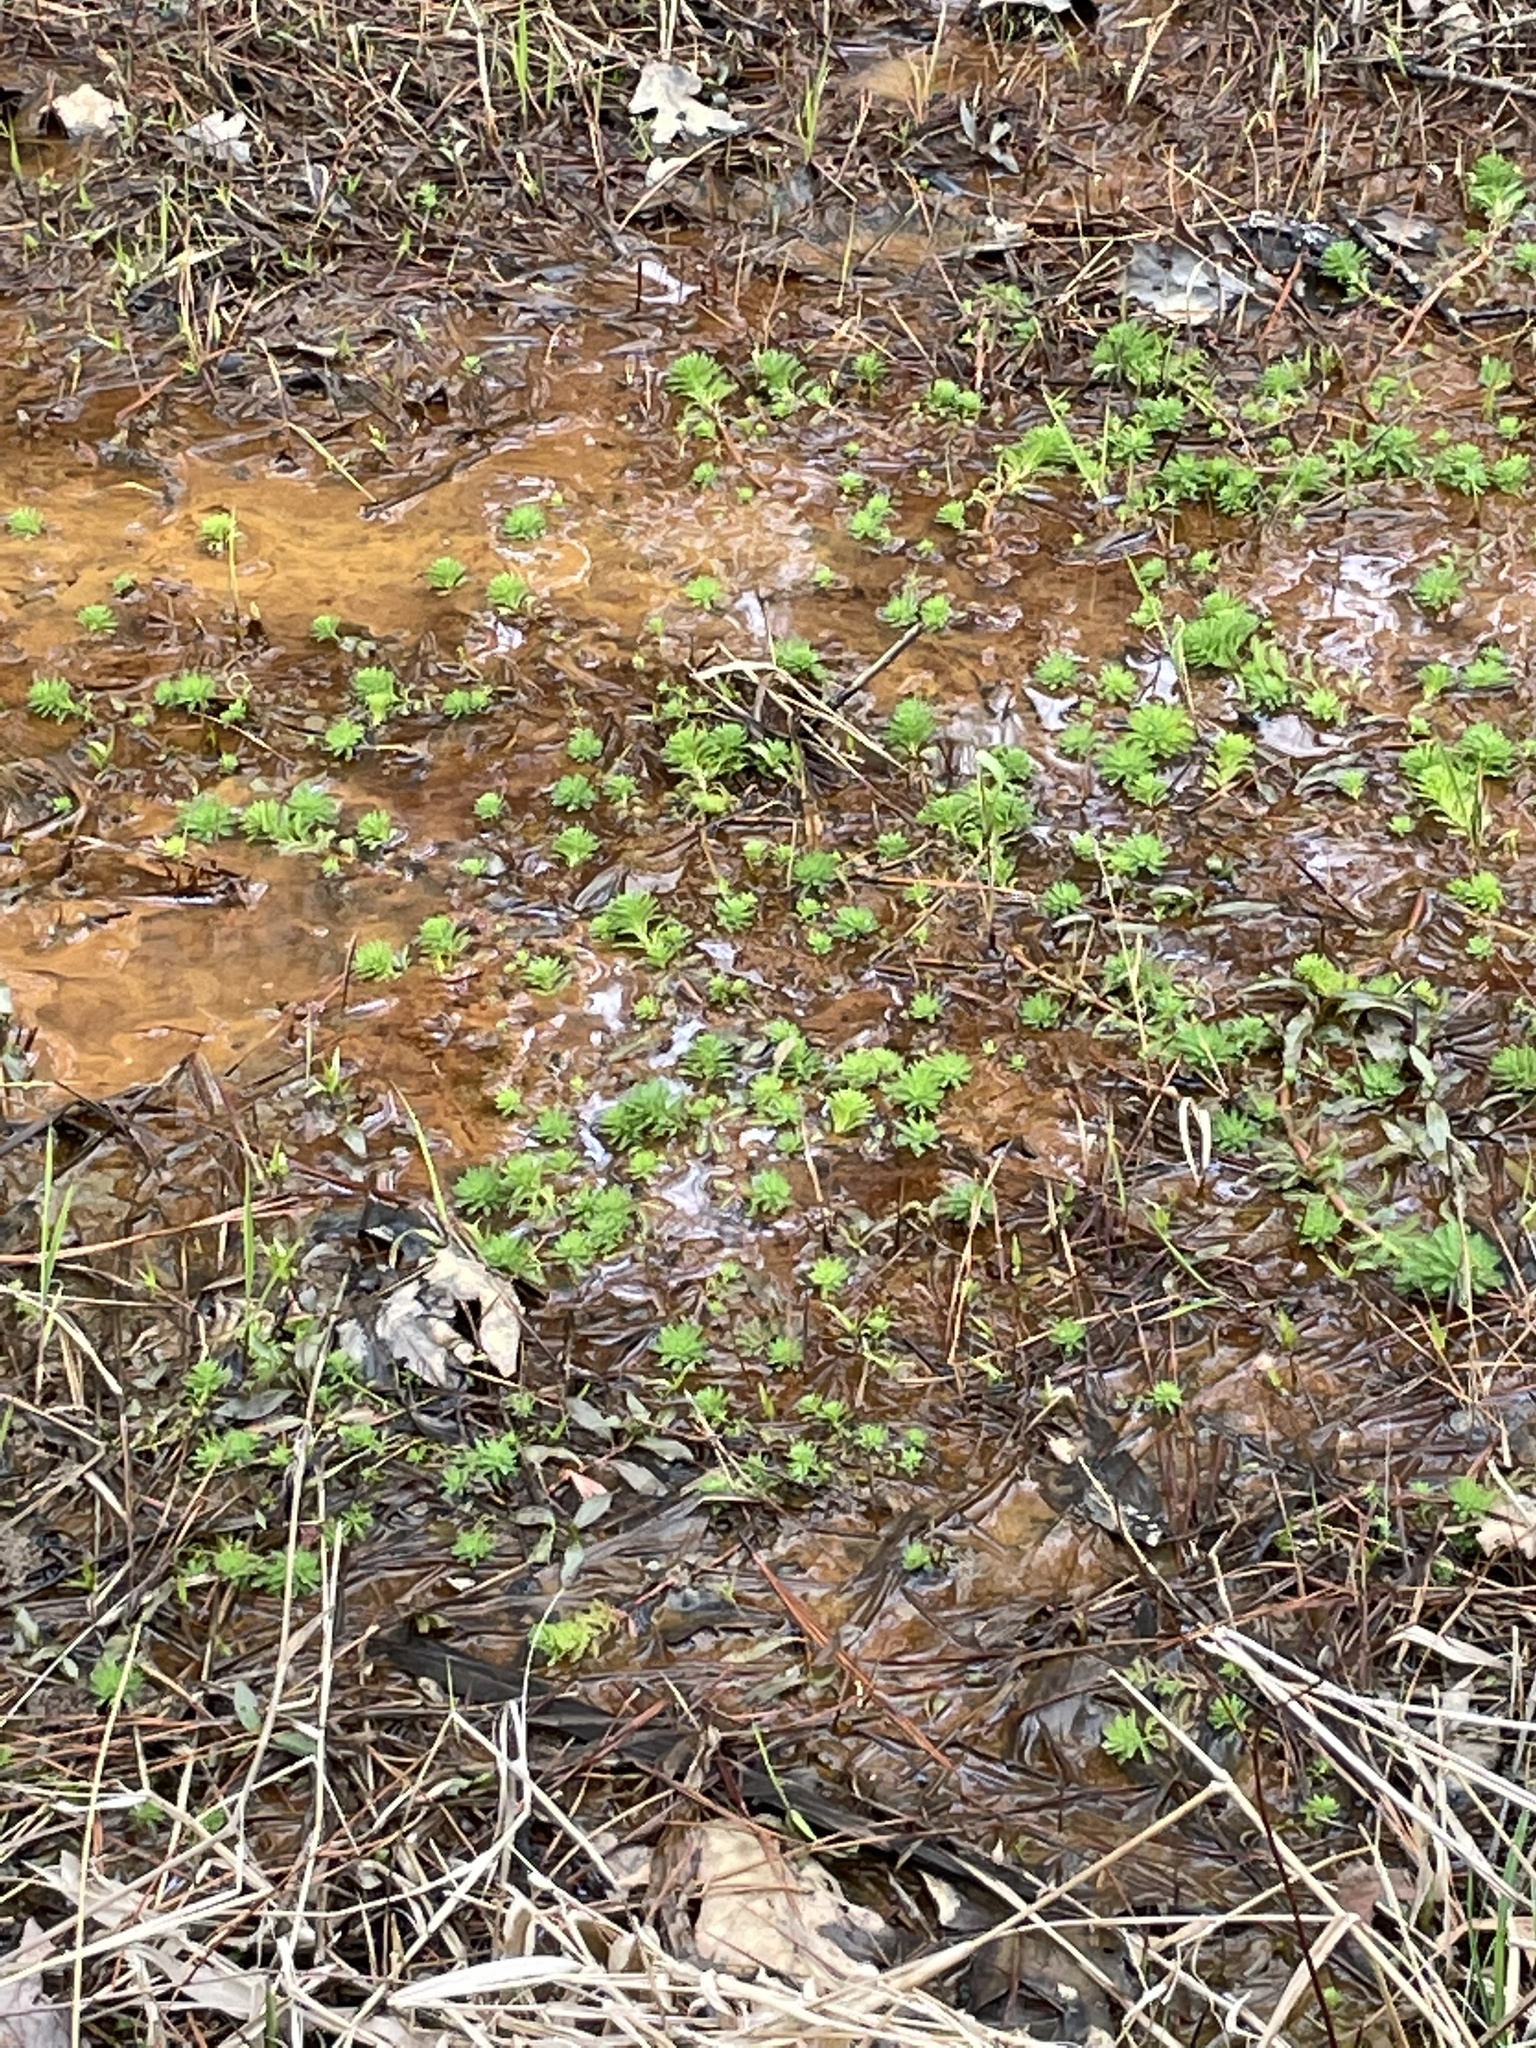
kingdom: Plantae
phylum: Tracheophyta
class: Magnoliopsida
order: Saxifragales
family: Haloragaceae
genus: Myriophyllum
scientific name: Myriophyllum aquaticum
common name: Parrot's feather
